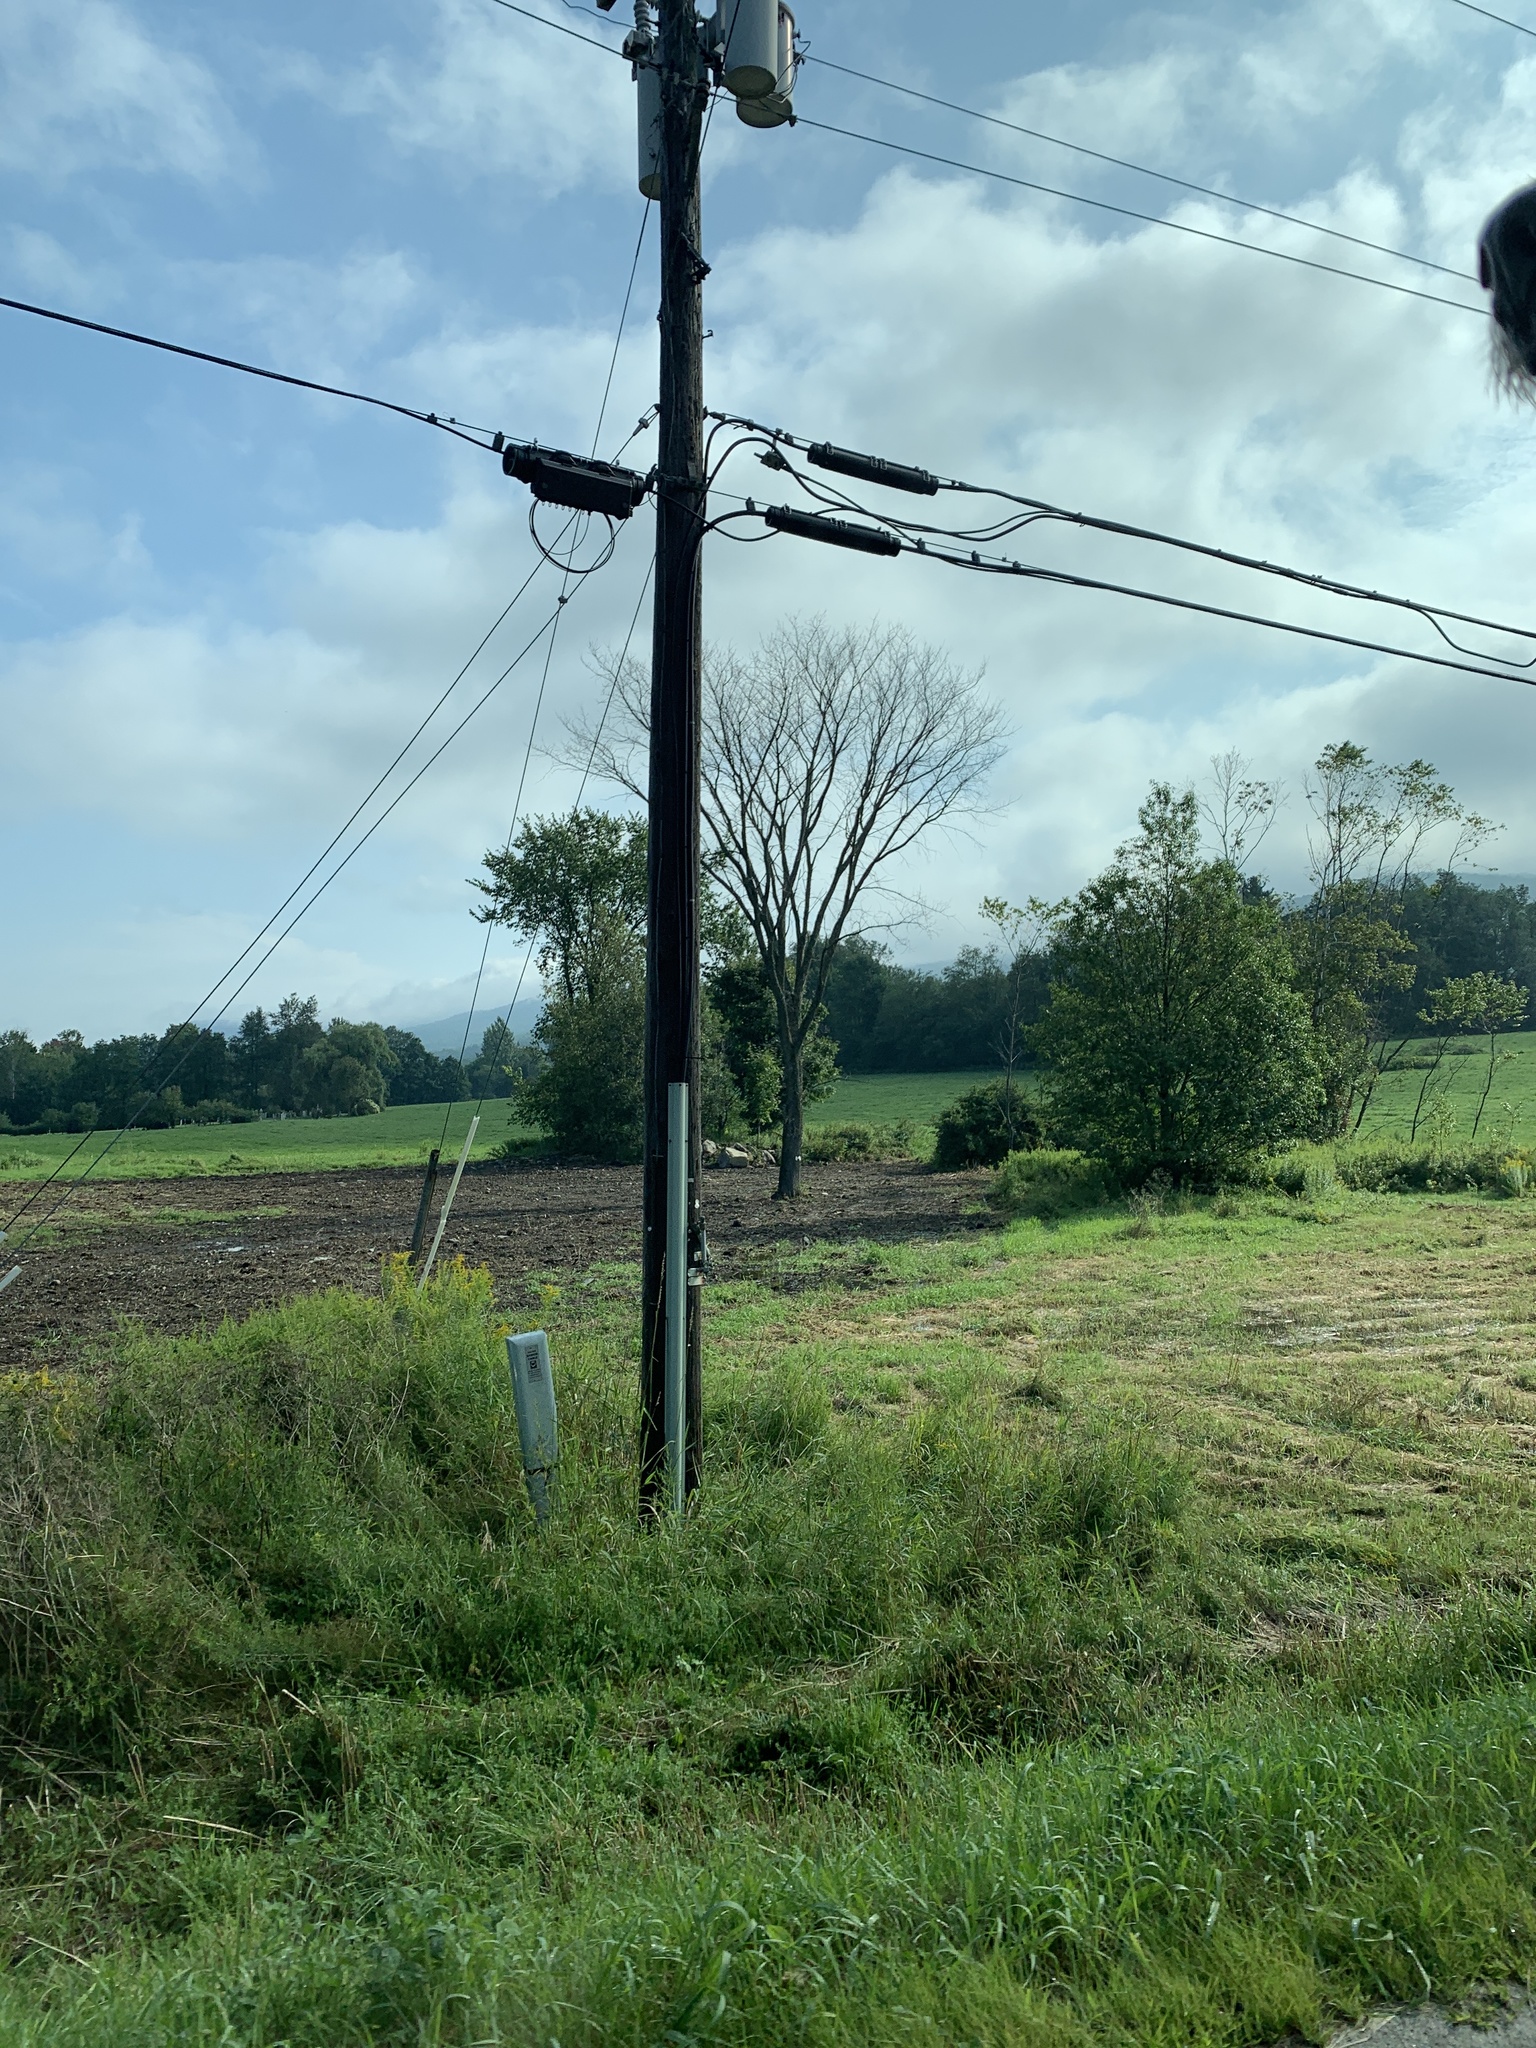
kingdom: Plantae
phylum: Tracheophyta
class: Magnoliopsida
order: Rosales
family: Ulmaceae
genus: Ulmus
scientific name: Ulmus americana
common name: American elm
